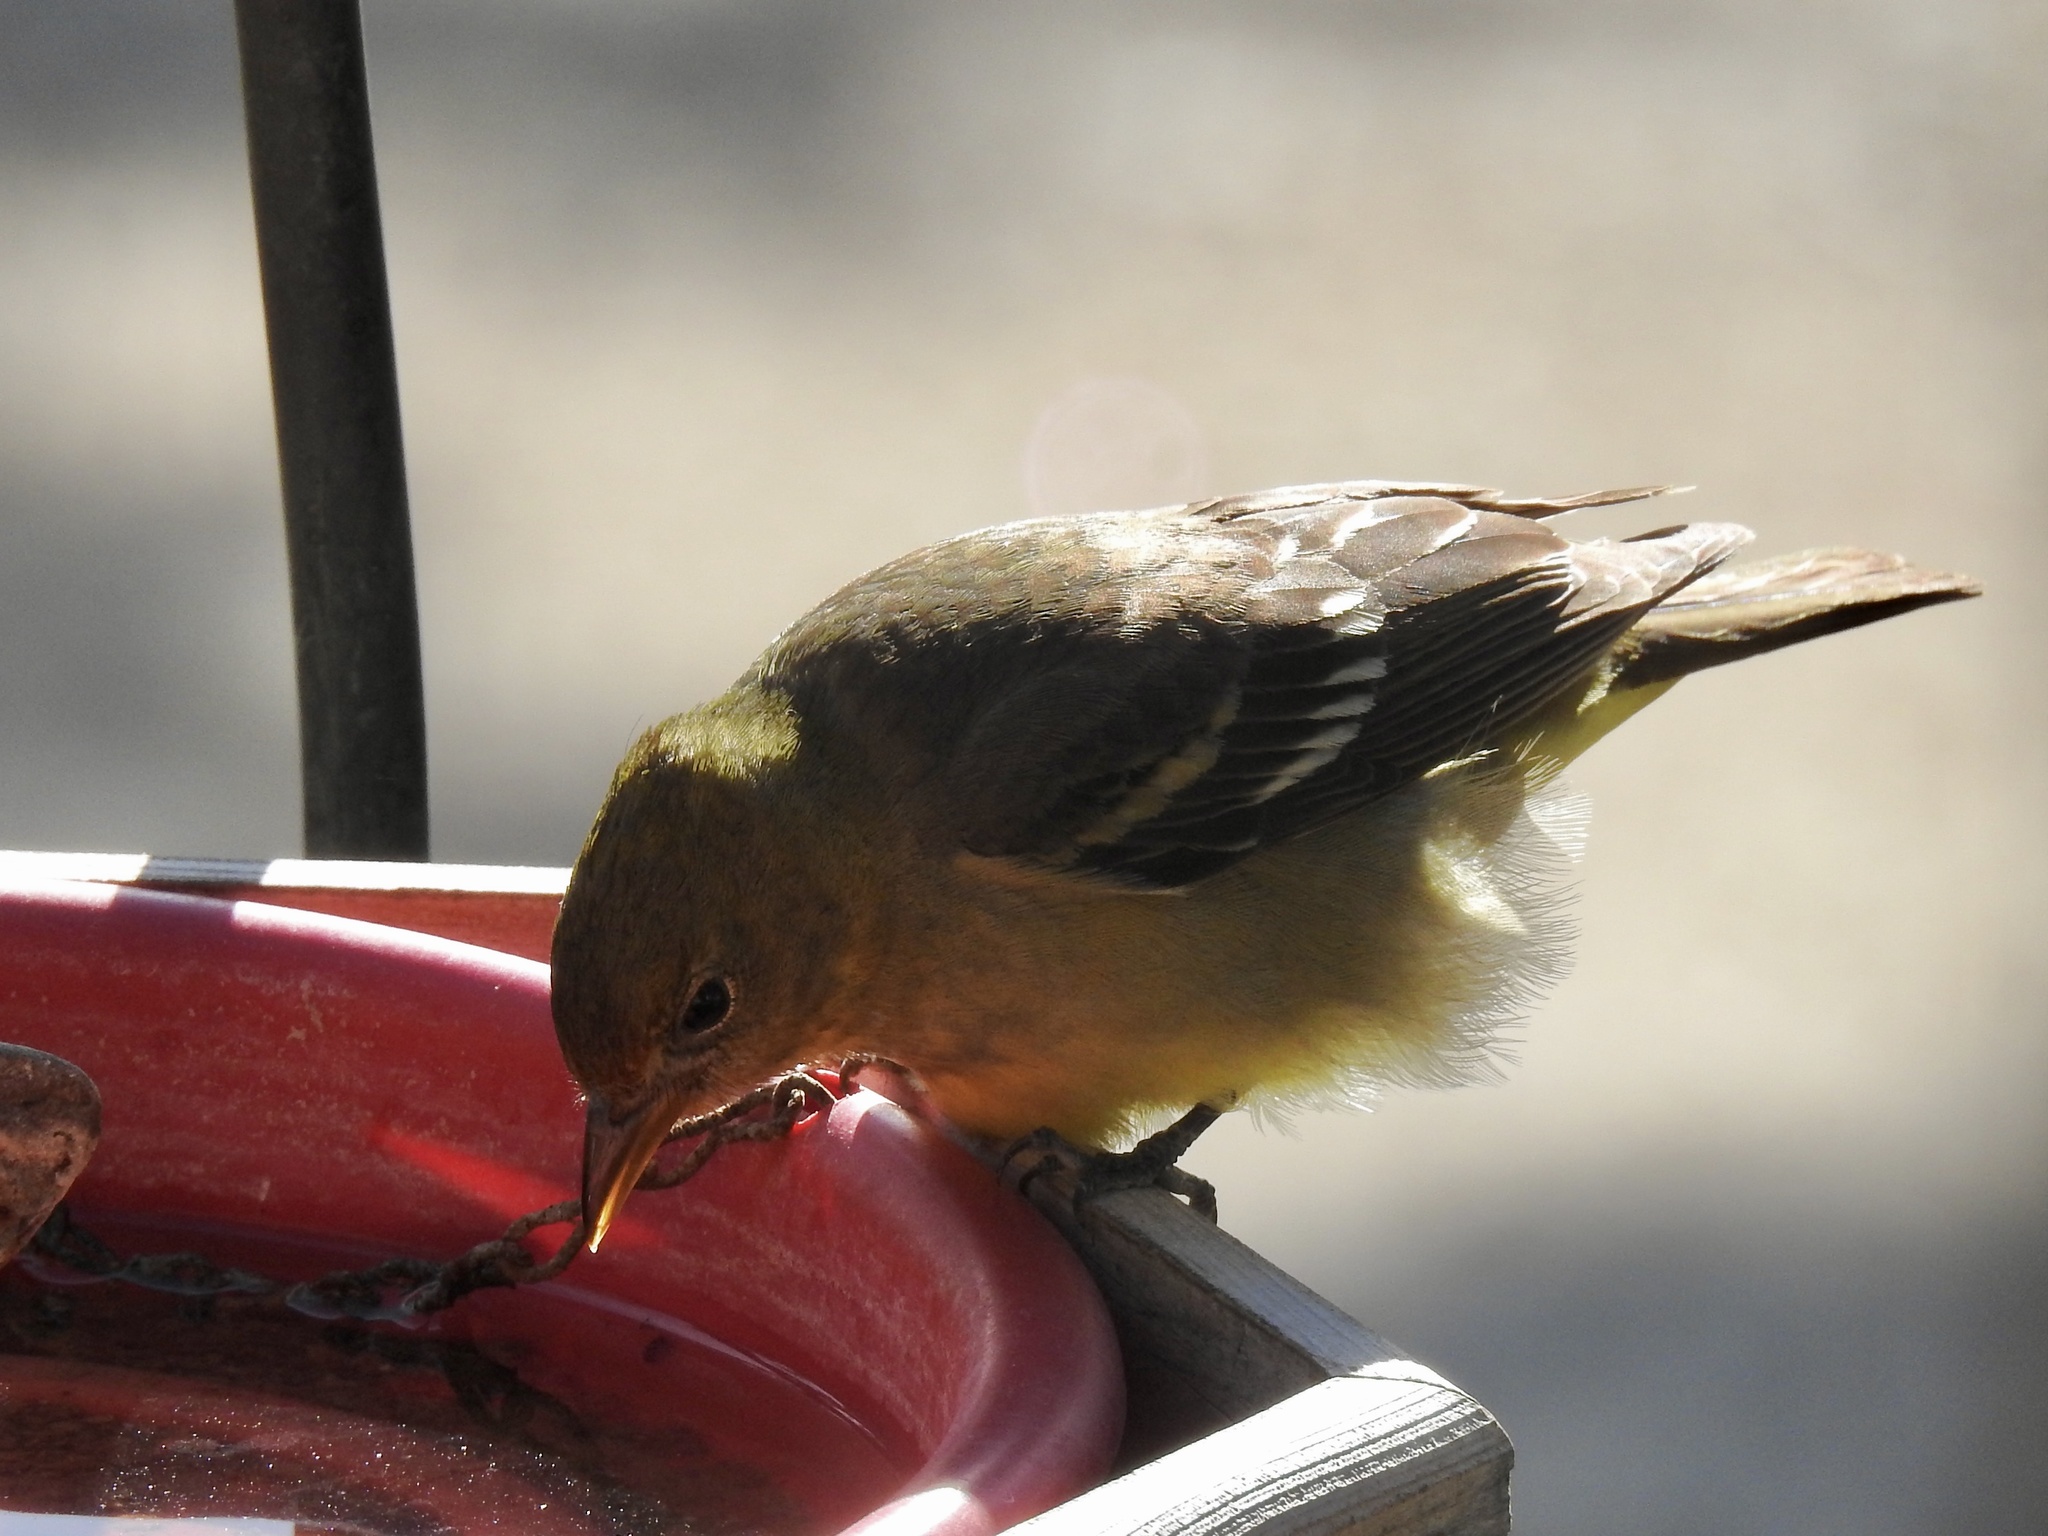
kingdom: Animalia
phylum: Chordata
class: Aves
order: Passeriformes
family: Cardinalidae
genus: Piranga
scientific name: Piranga ludoviciana
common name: Western tanager
